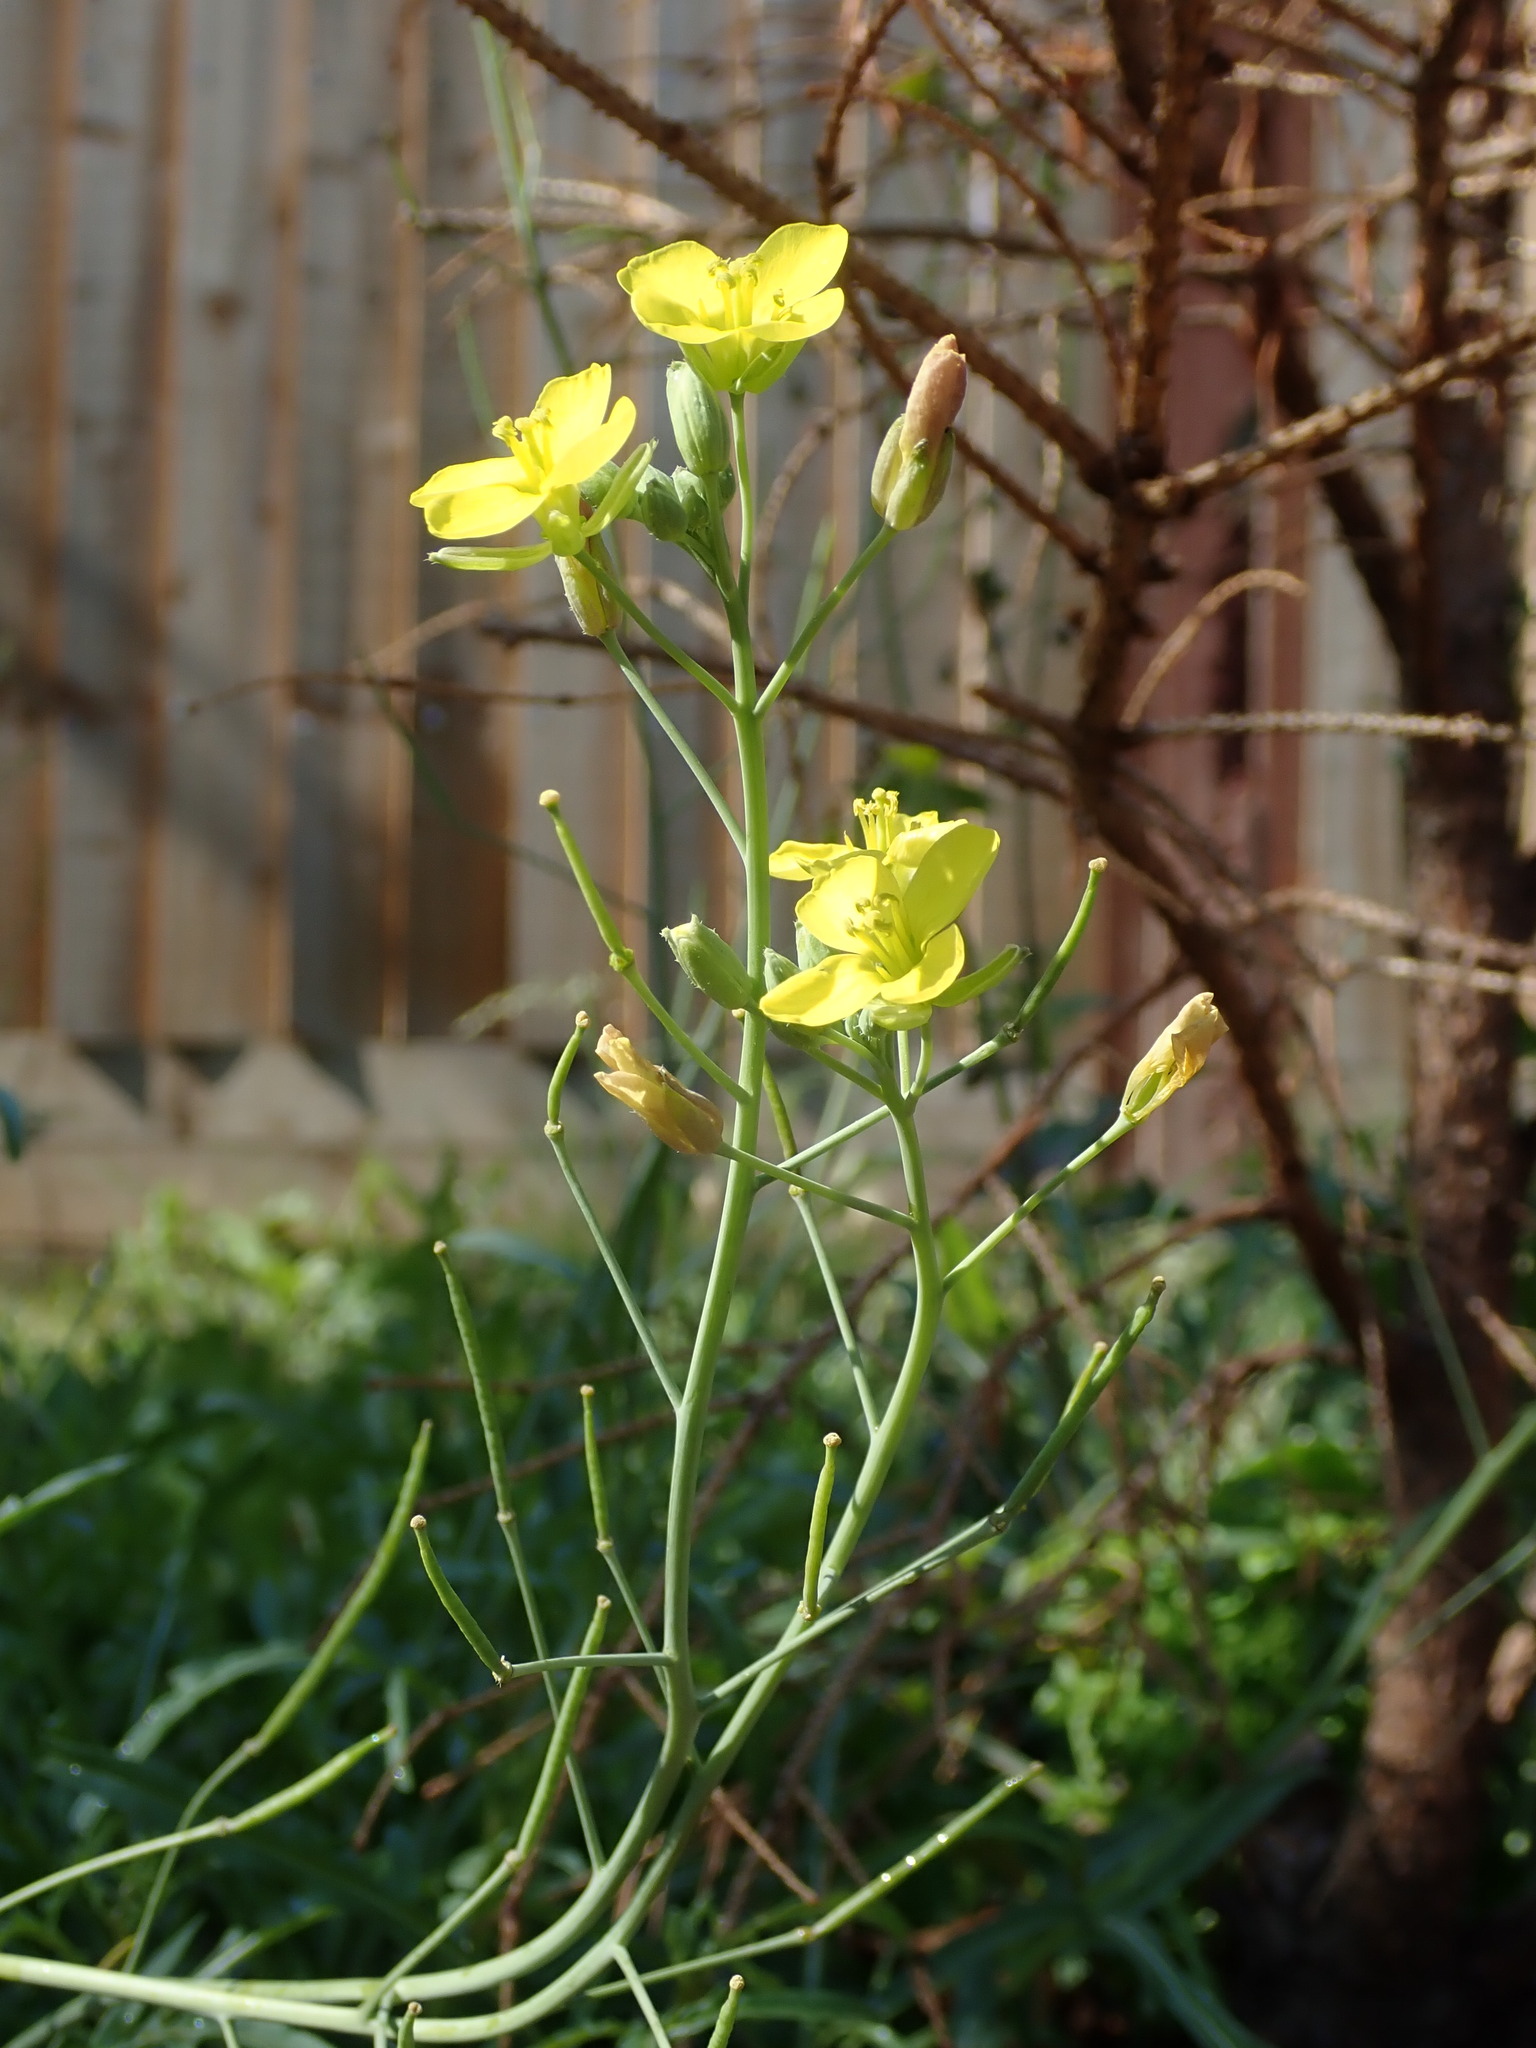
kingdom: Plantae
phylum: Tracheophyta
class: Magnoliopsida
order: Brassicales
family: Brassicaceae
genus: Diplotaxis
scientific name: Diplotaxis tenuifolia
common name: Perennial wall-rocket
